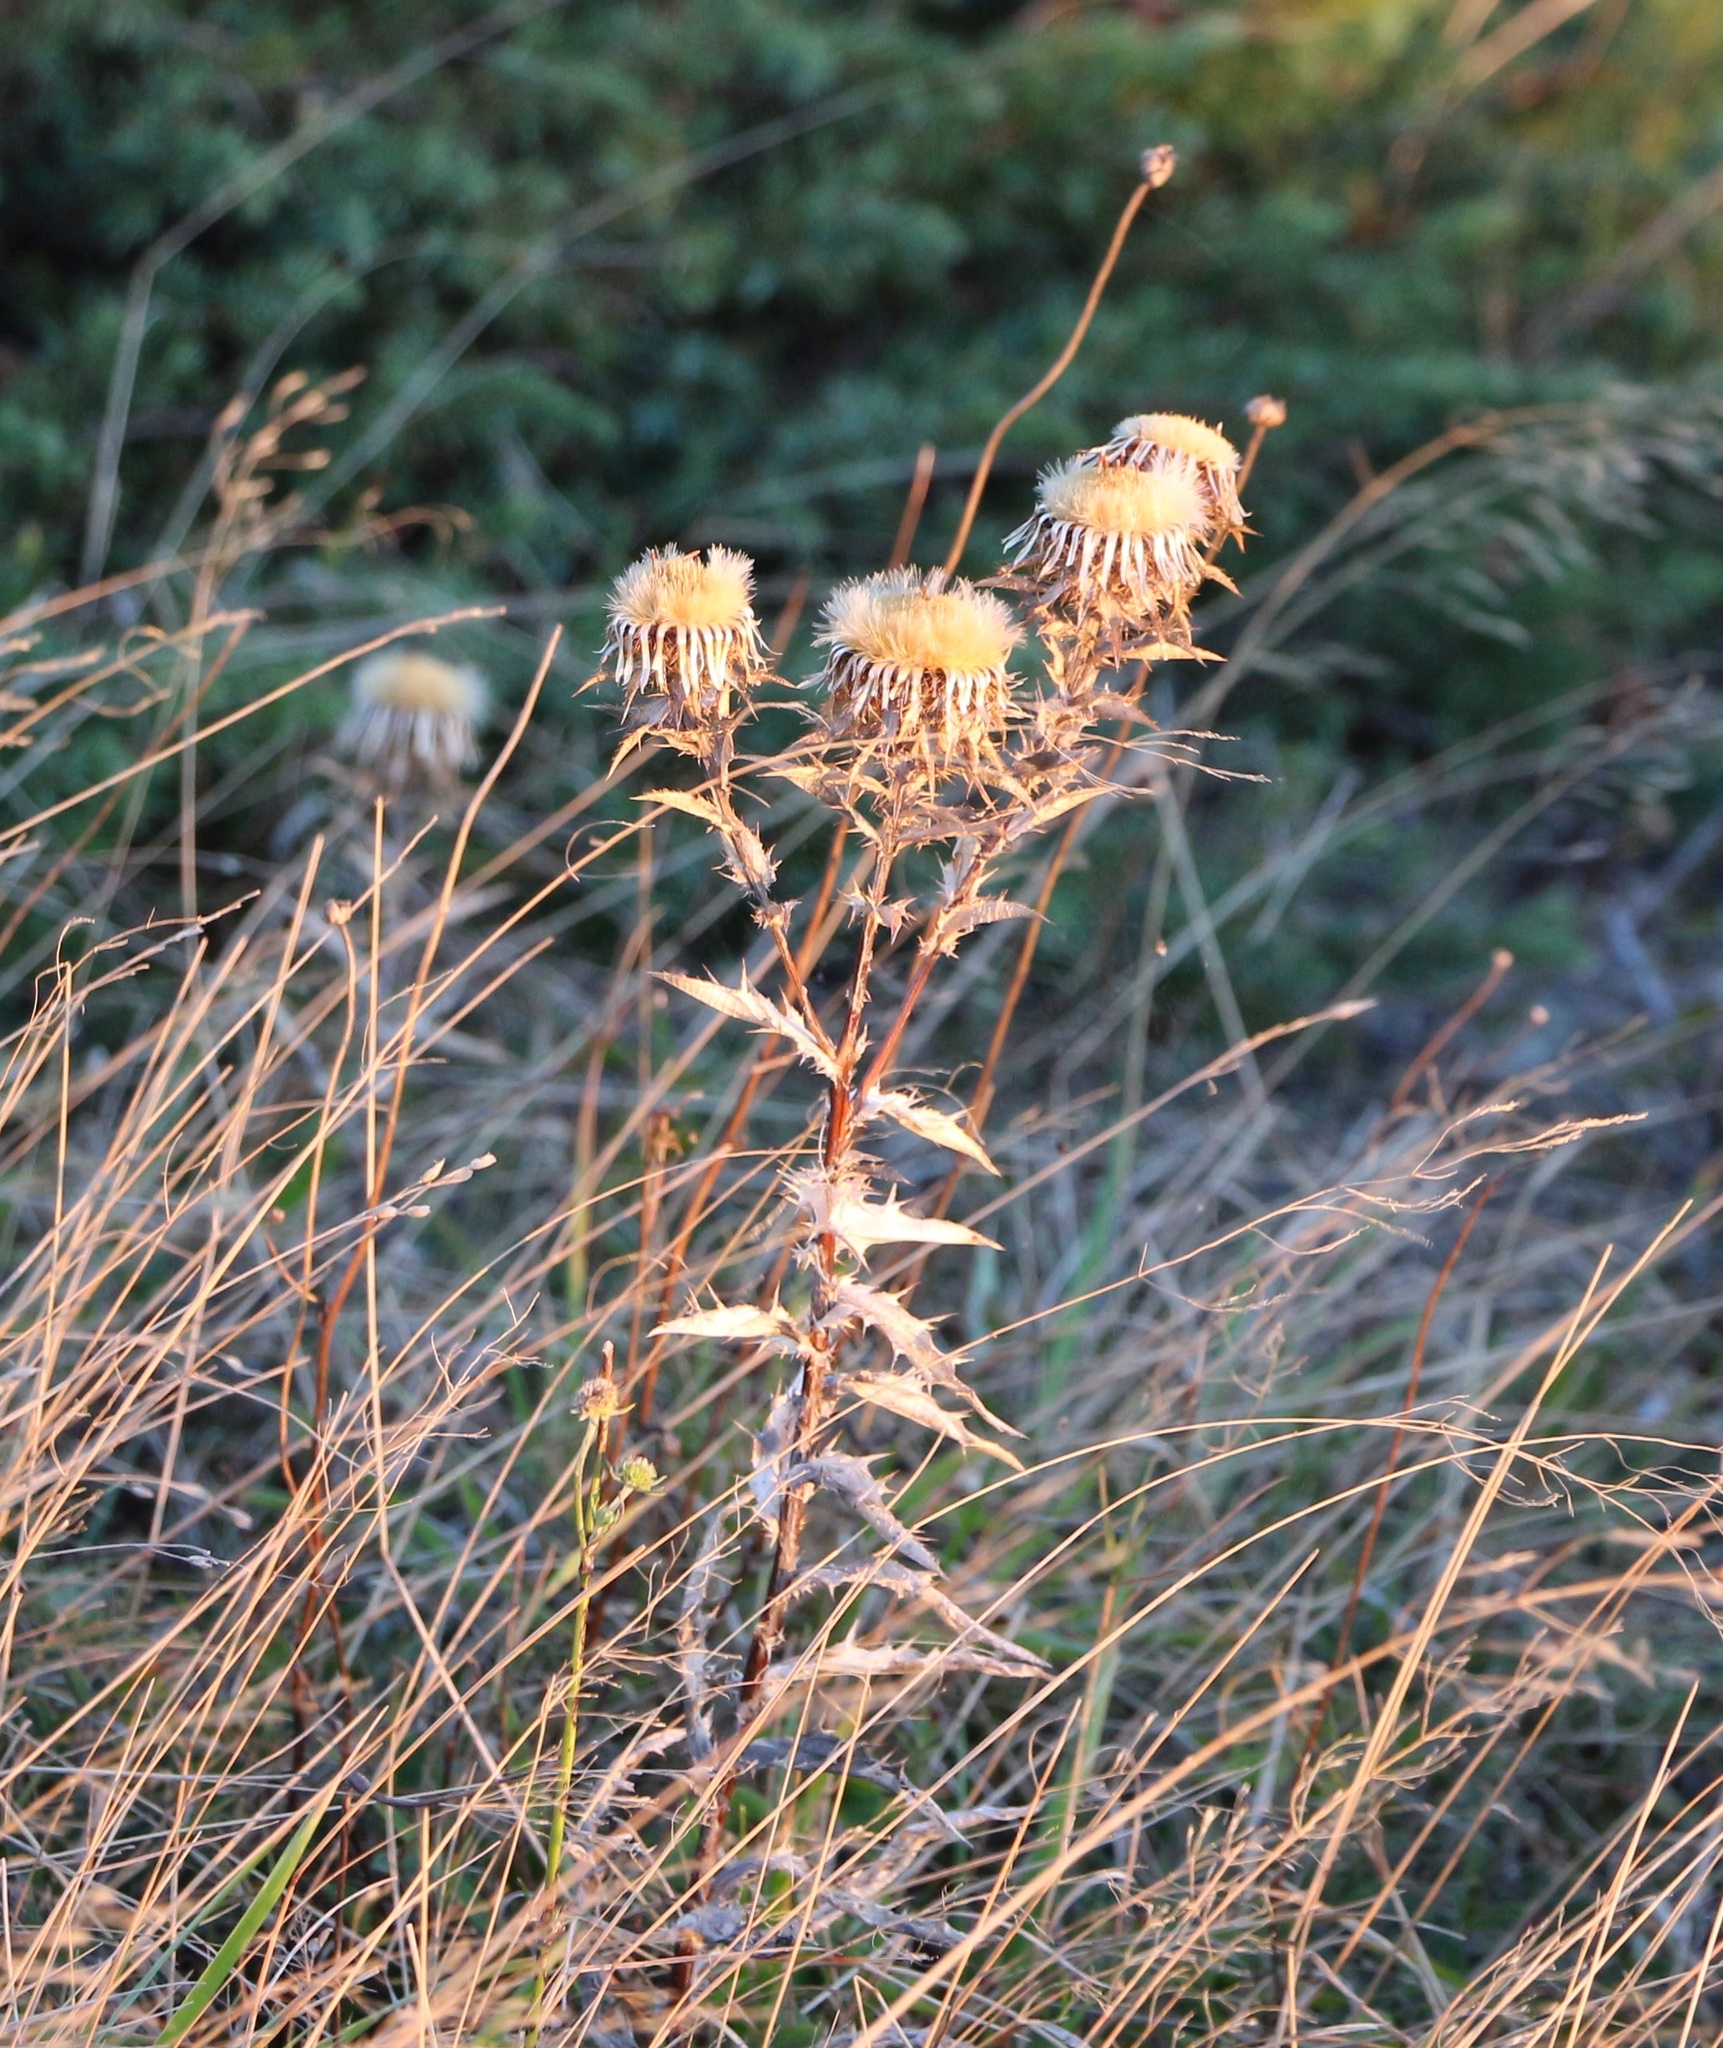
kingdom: Plantae
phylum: Tracheophyta
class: Magnoliopsida
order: Asterales
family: Asteraceae
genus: Carlina
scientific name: Carlina biebersteinii
